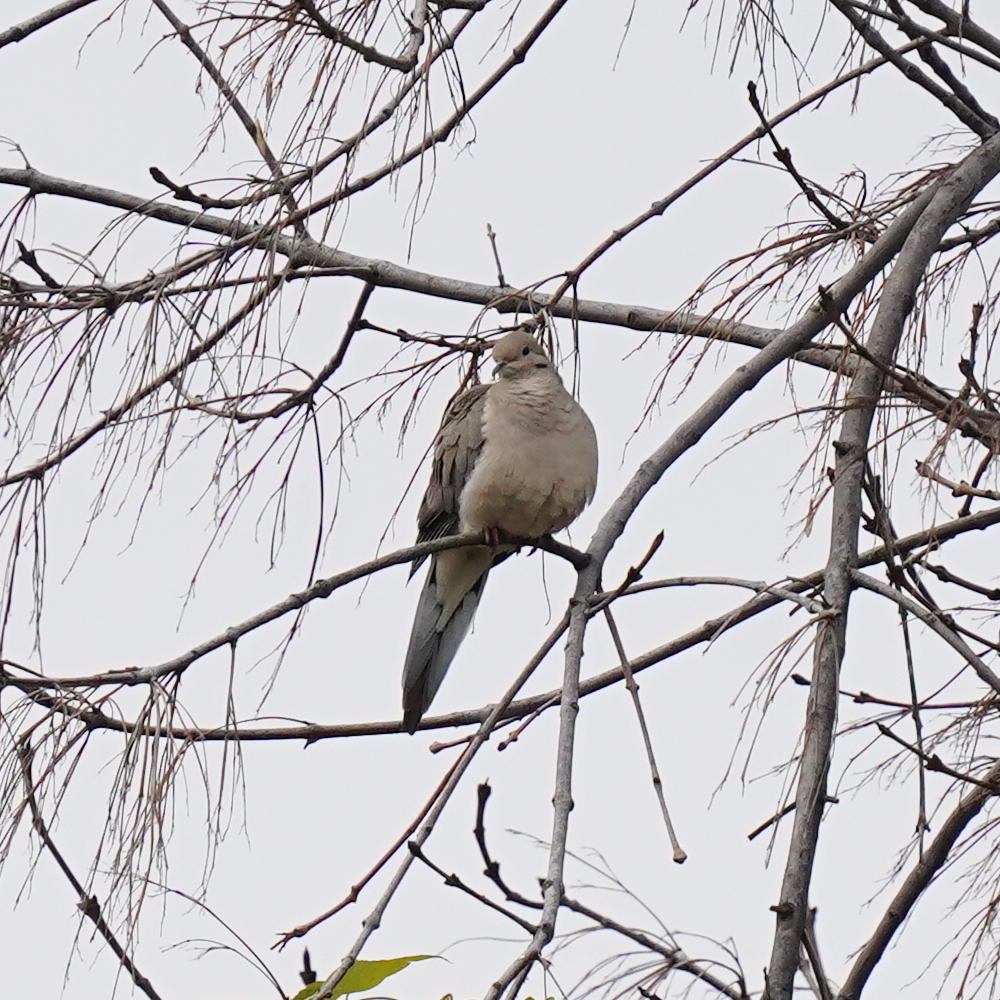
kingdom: Animalia
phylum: Chordata
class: Aves
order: Columbiformes
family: Columbidae
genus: Zenaida
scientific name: Zenaida macroura
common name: Mourning dove
